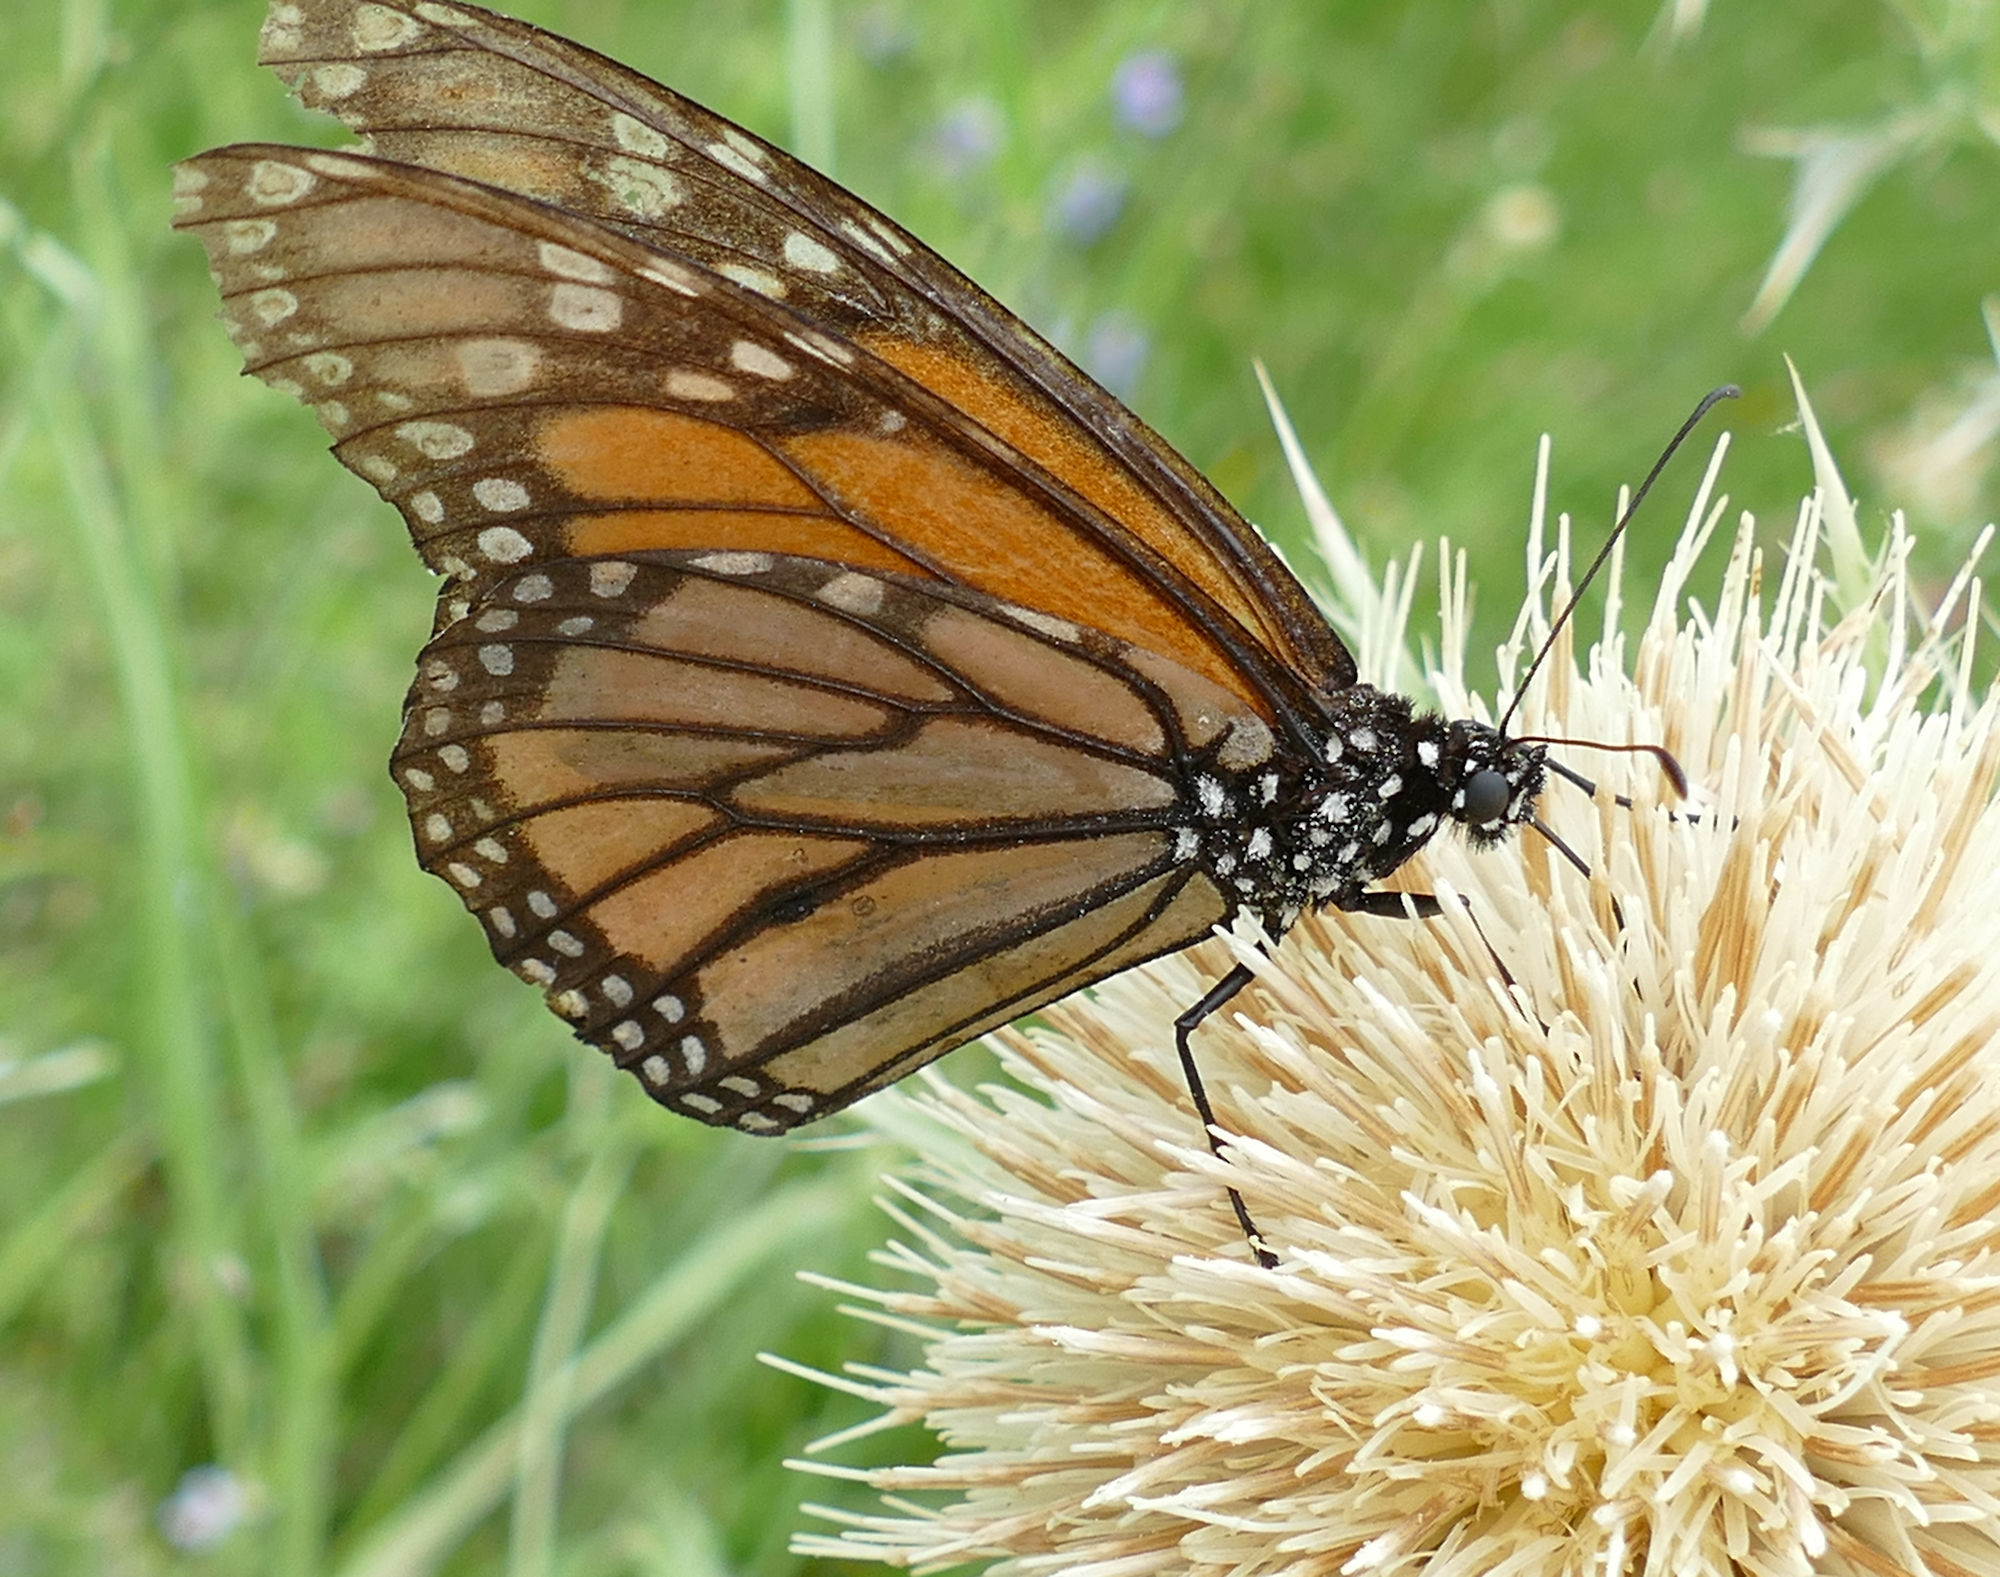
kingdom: Animalia
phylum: Arthropoda
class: Insecta
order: Lepidoptera
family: Nymphalidae
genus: Danaus
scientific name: Danaus plexippus
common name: Monarch
